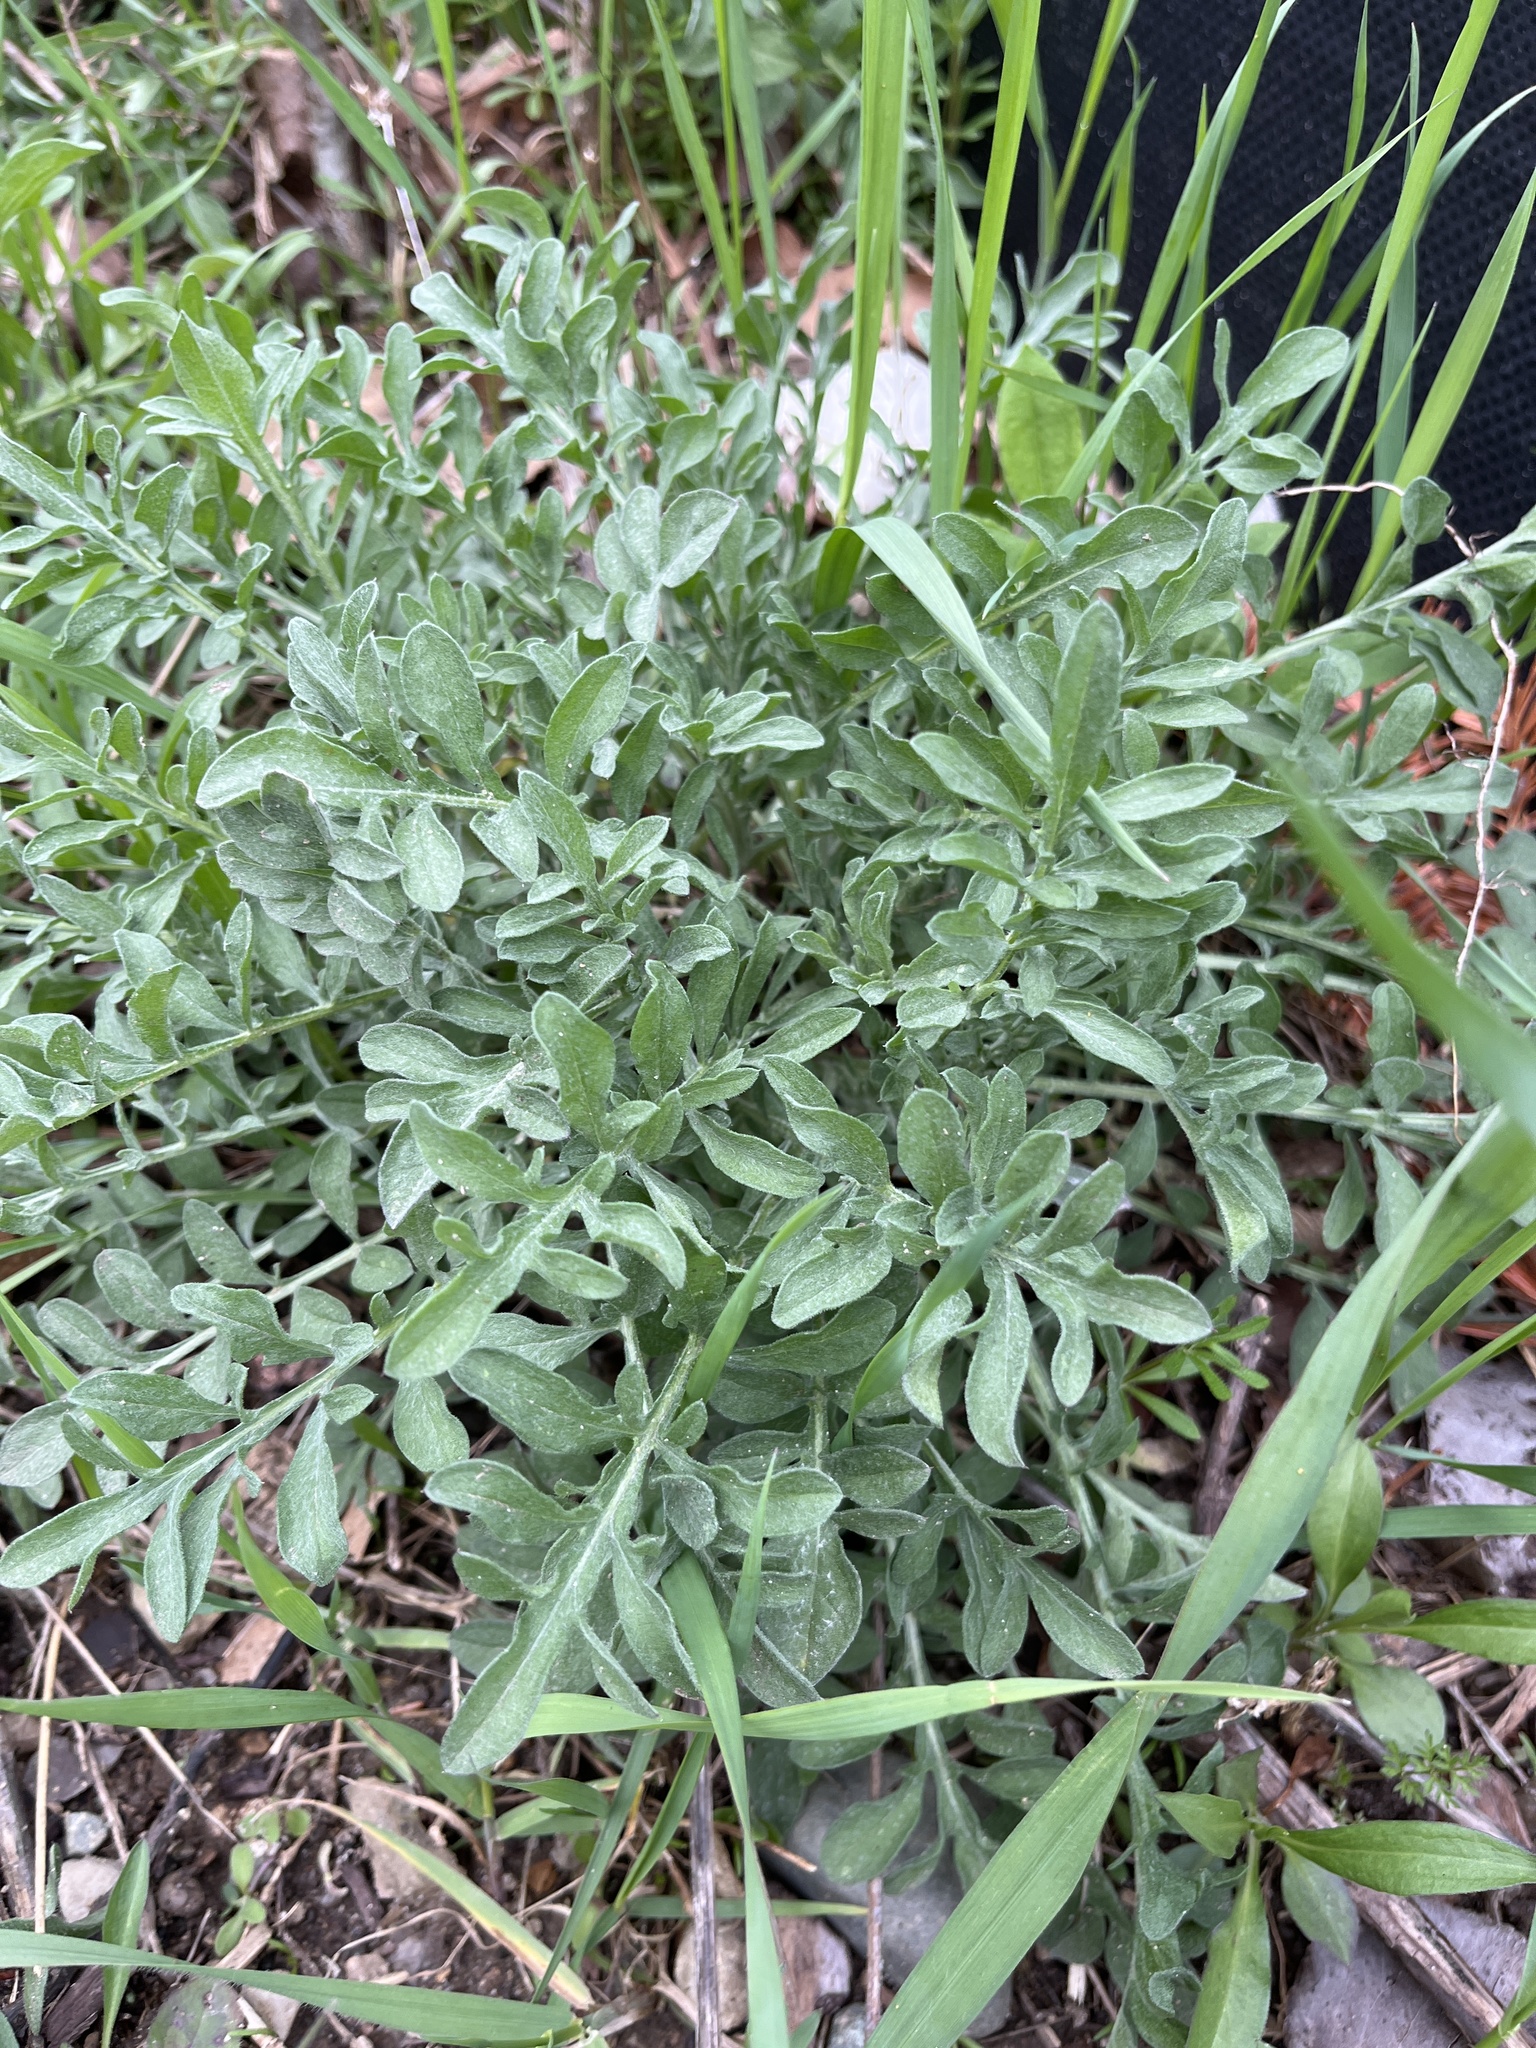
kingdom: Plantae
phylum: Tracheophyta
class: Magnoliopsida
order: Asterales
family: Asteraceae
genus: Centaurea
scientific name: Centaurea stoebe
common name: Spotted knapweed
